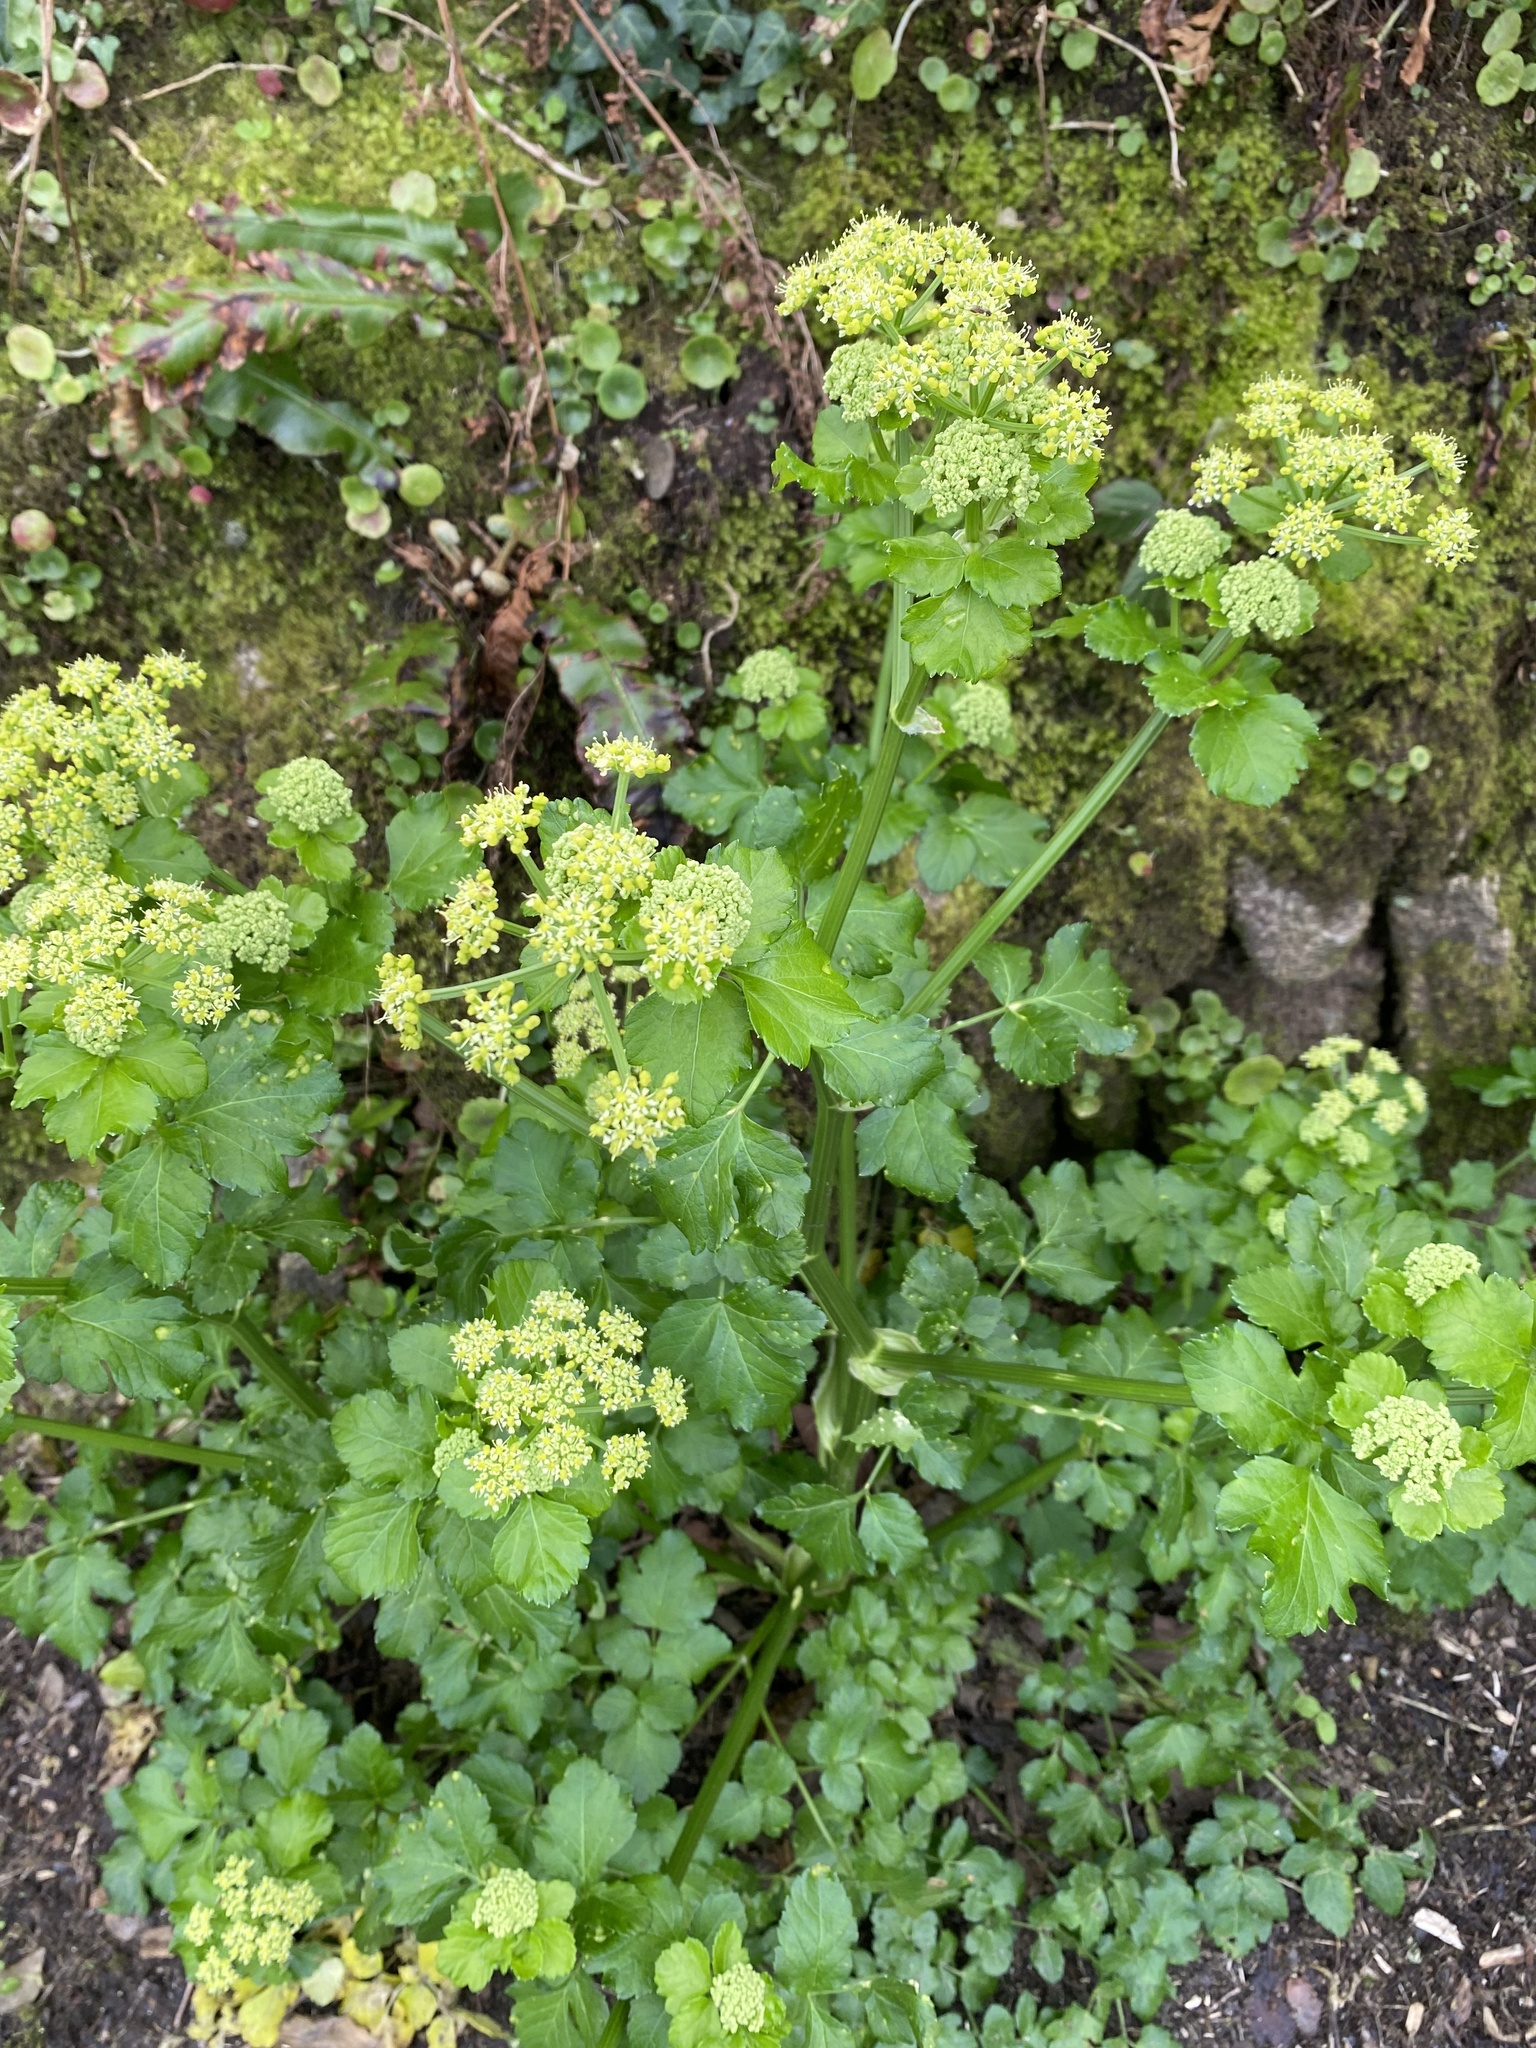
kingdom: Plantae
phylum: Tracheophyta
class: Magnoliopsida
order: Apiales
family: Apiaceae
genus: Smyrnium
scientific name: Smyrnium olusatrum
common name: Alexanders
